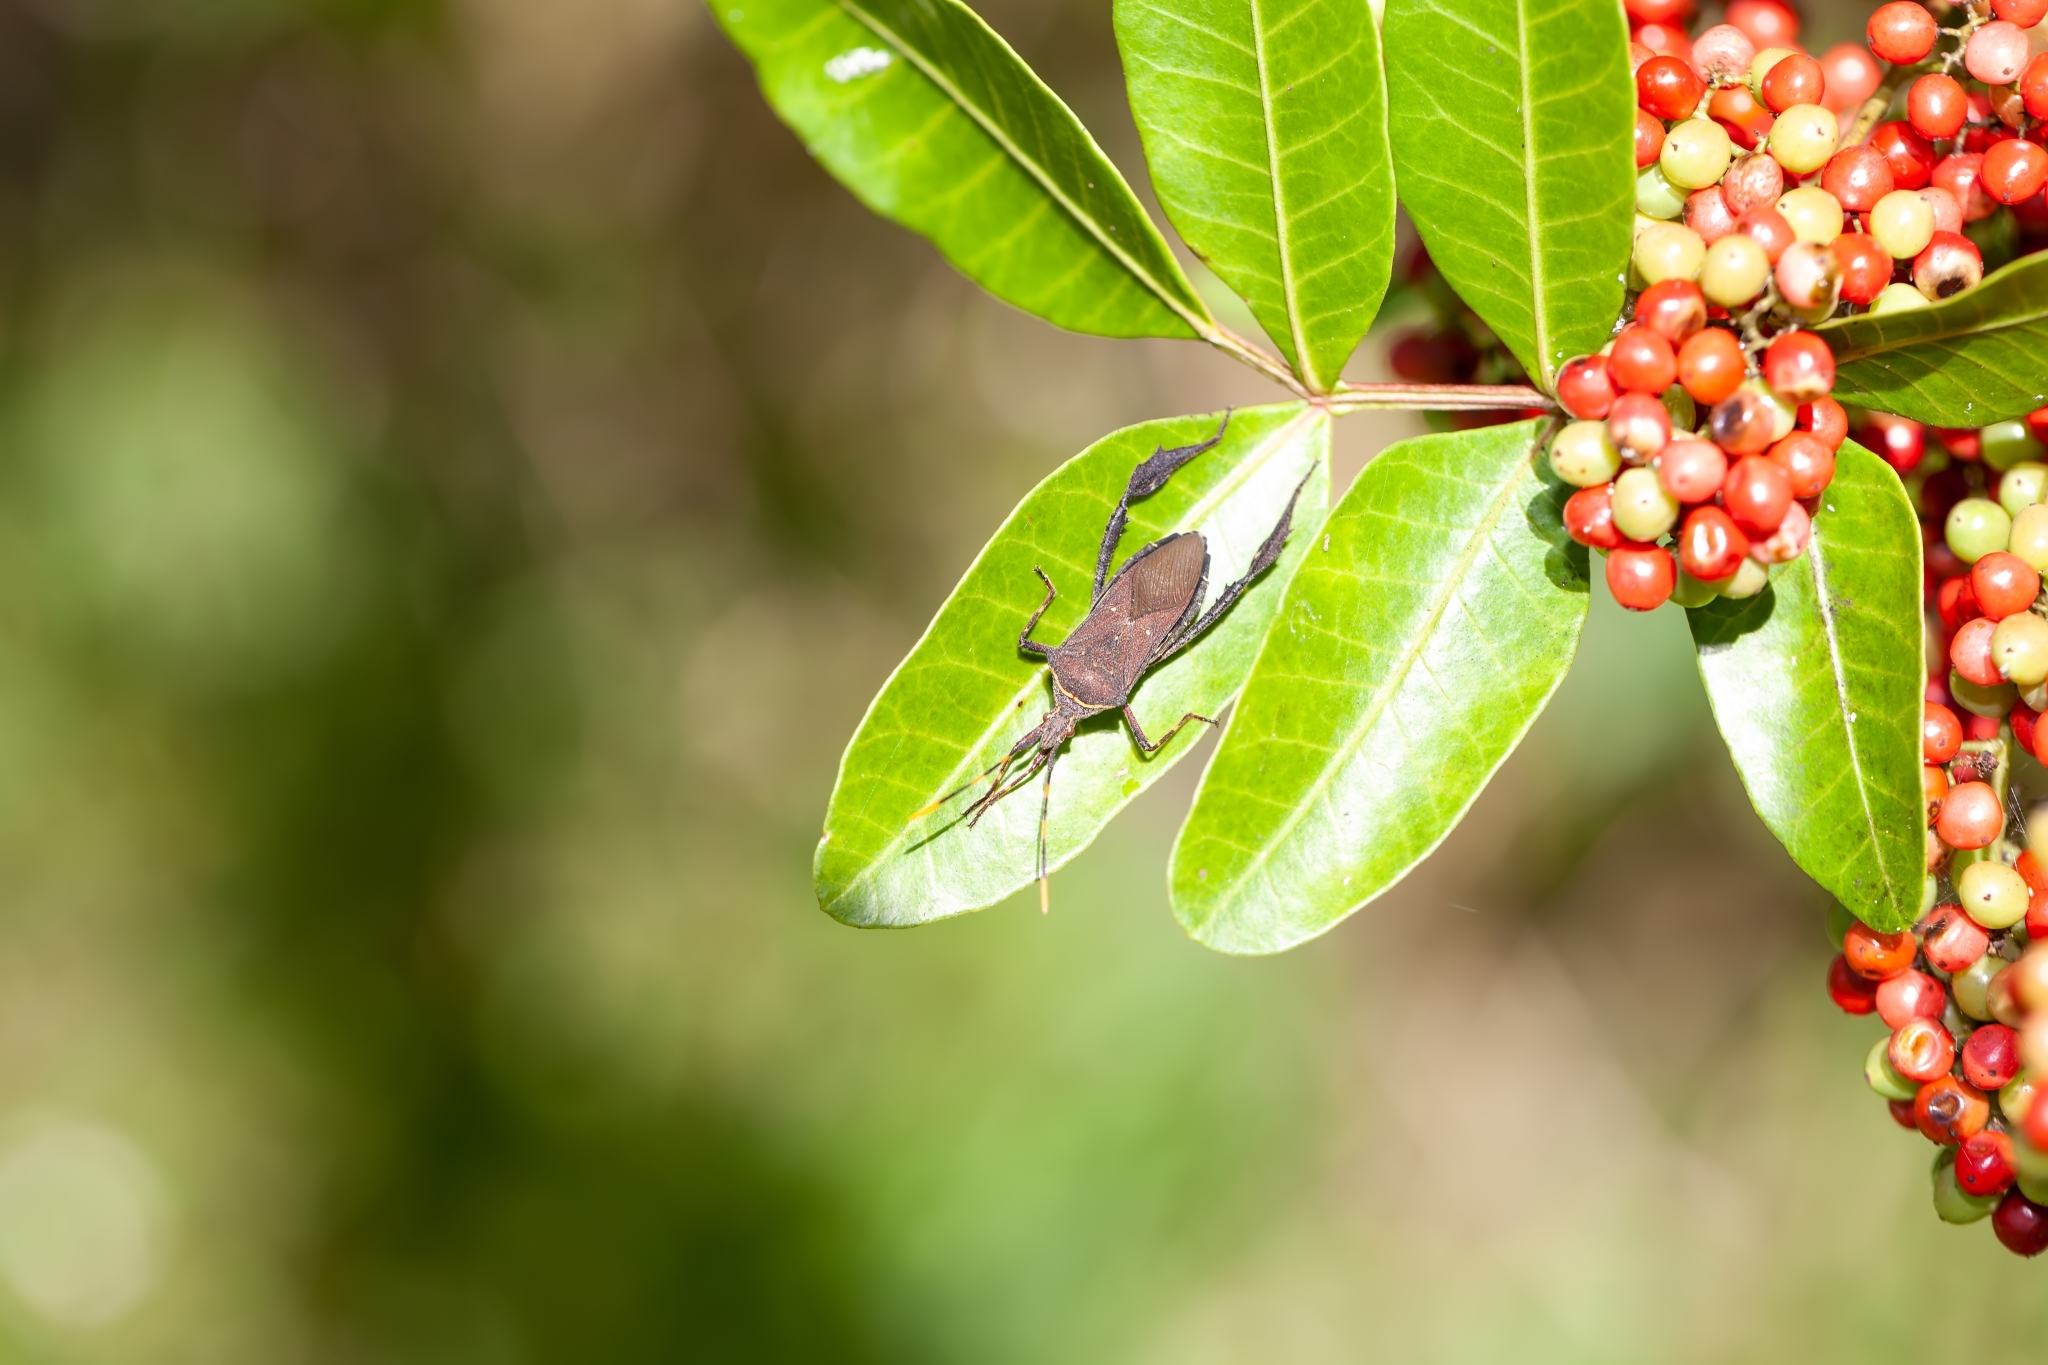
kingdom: Animalia
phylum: Arthropoda
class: Insecta
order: Hemiptera
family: Coreidae
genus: Leptoglossus
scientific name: Leptoglossus gonagra
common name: Citron bug
